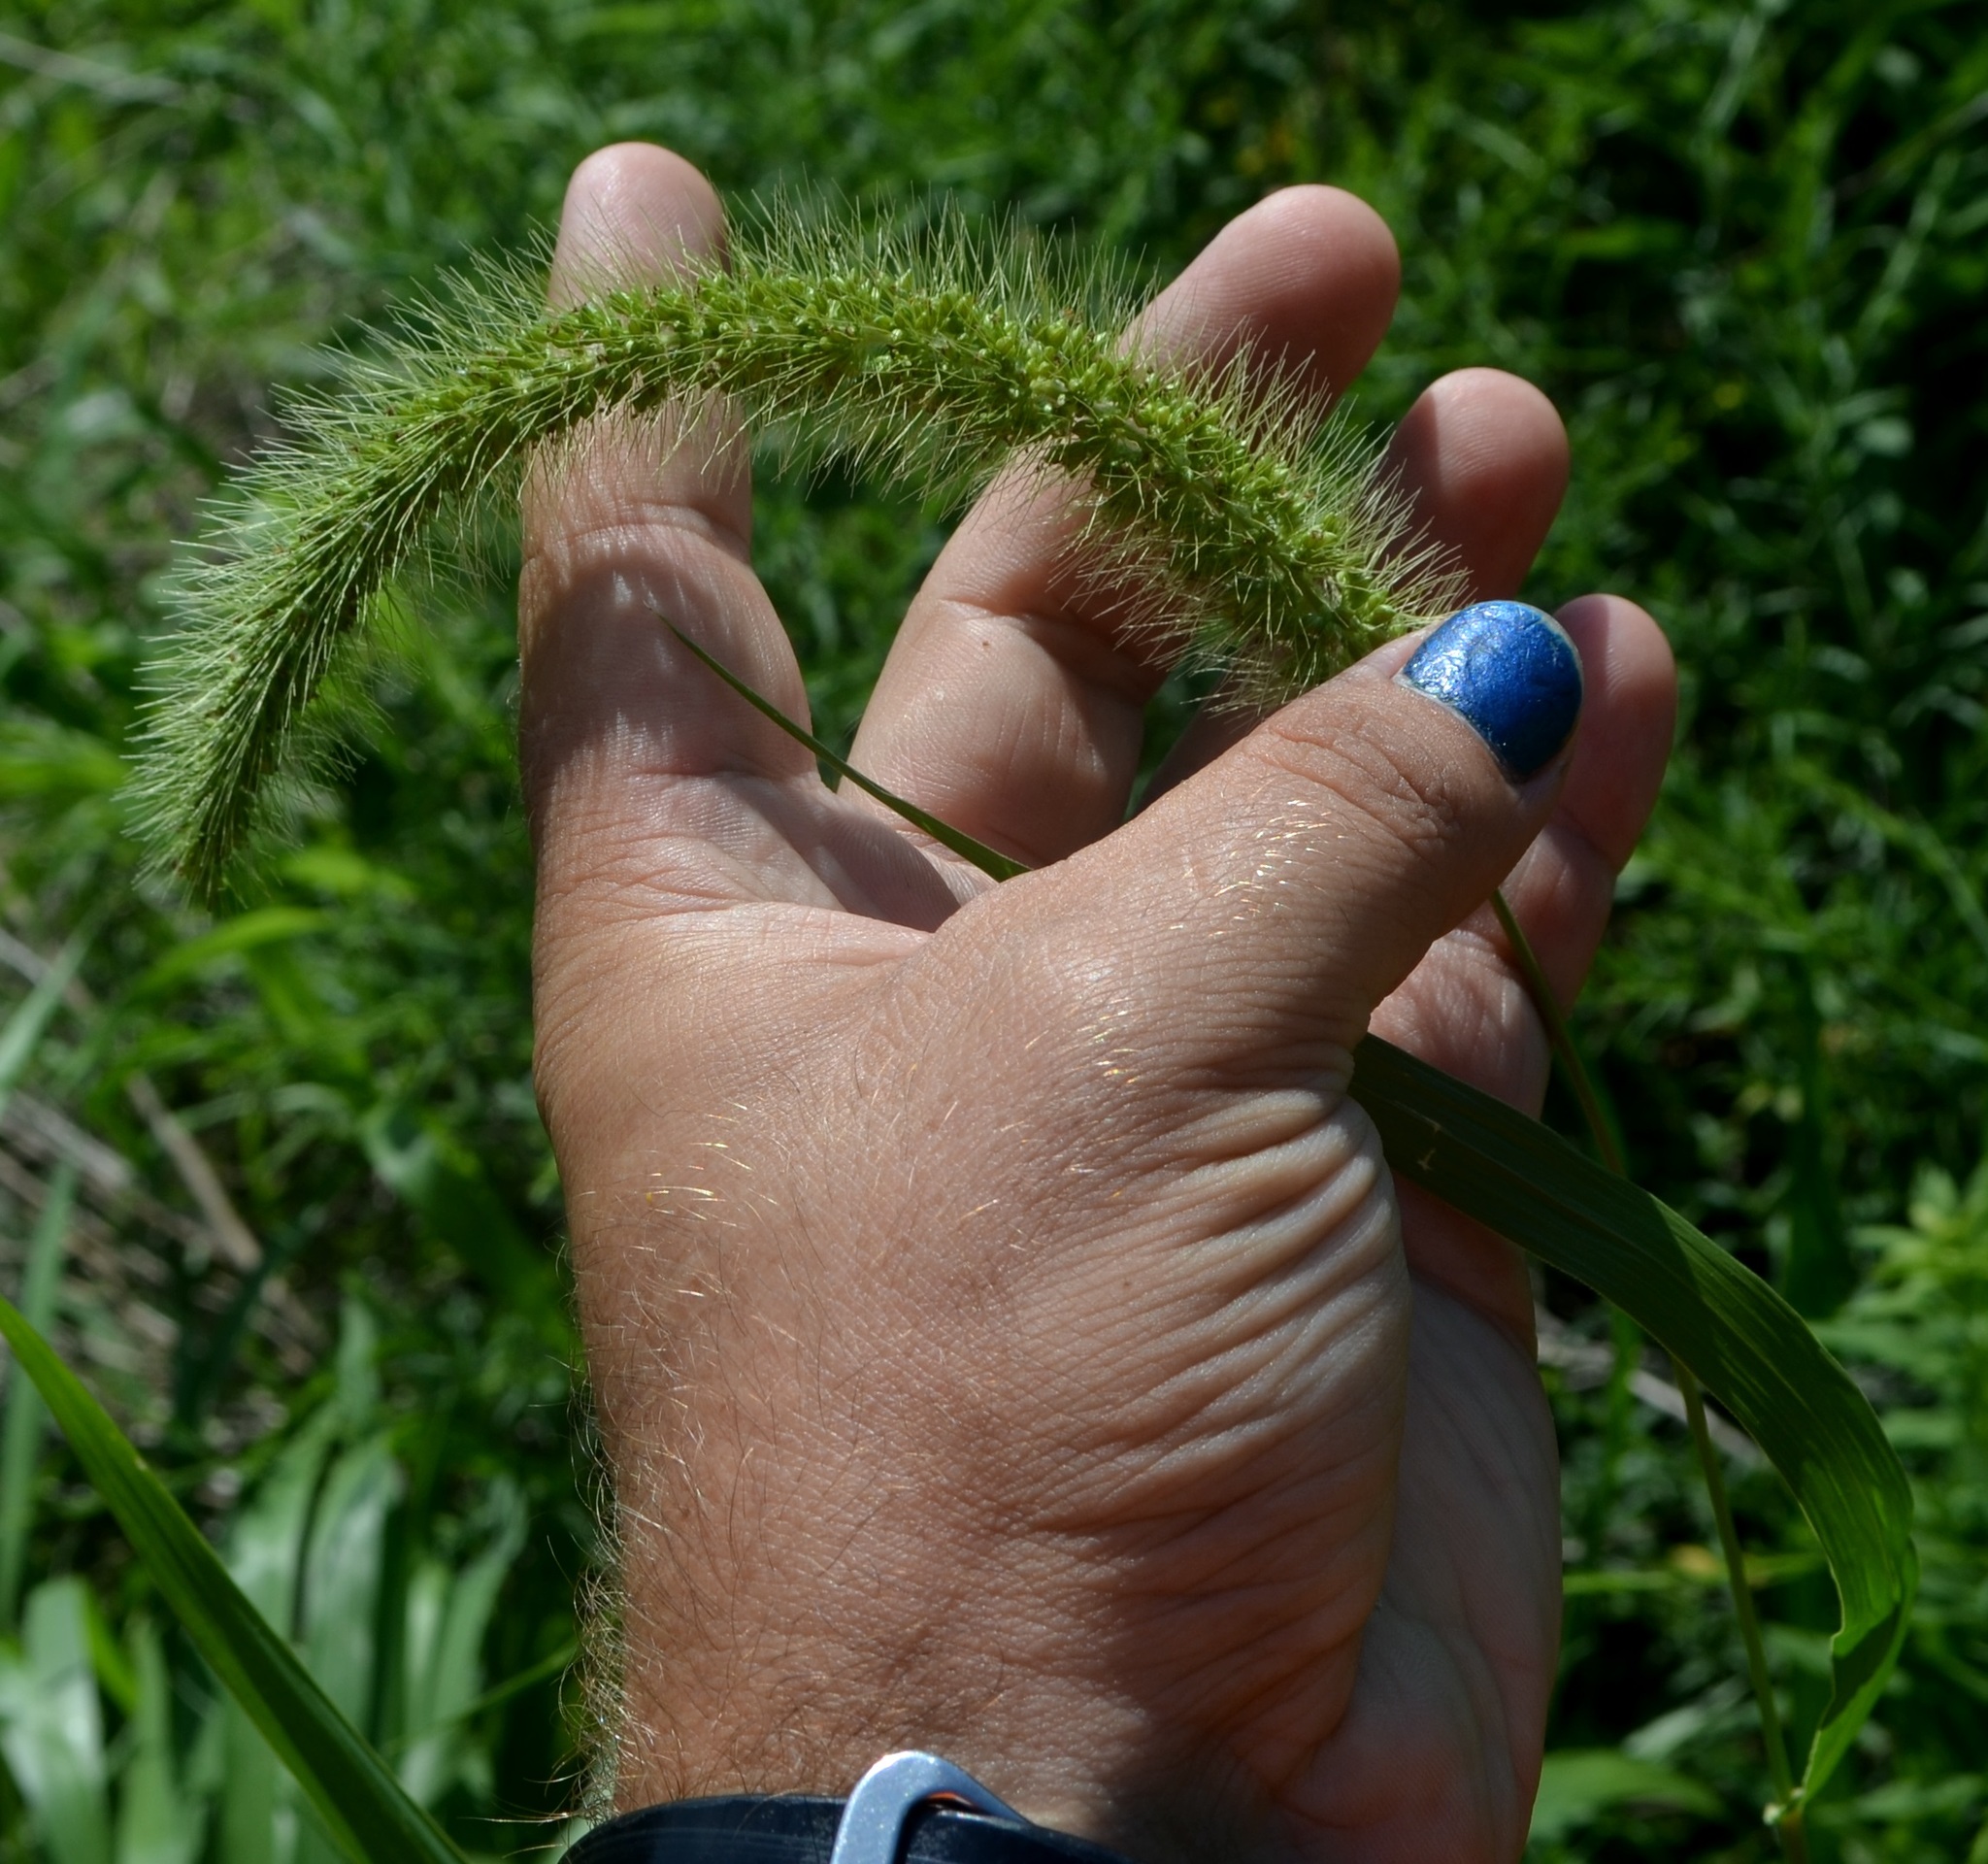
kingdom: Plantae
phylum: Tracheophyta
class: Liliopsida
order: Poales
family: Poaceae
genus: Setaria
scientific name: Setaria faberi
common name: Nodding bristle-grass
